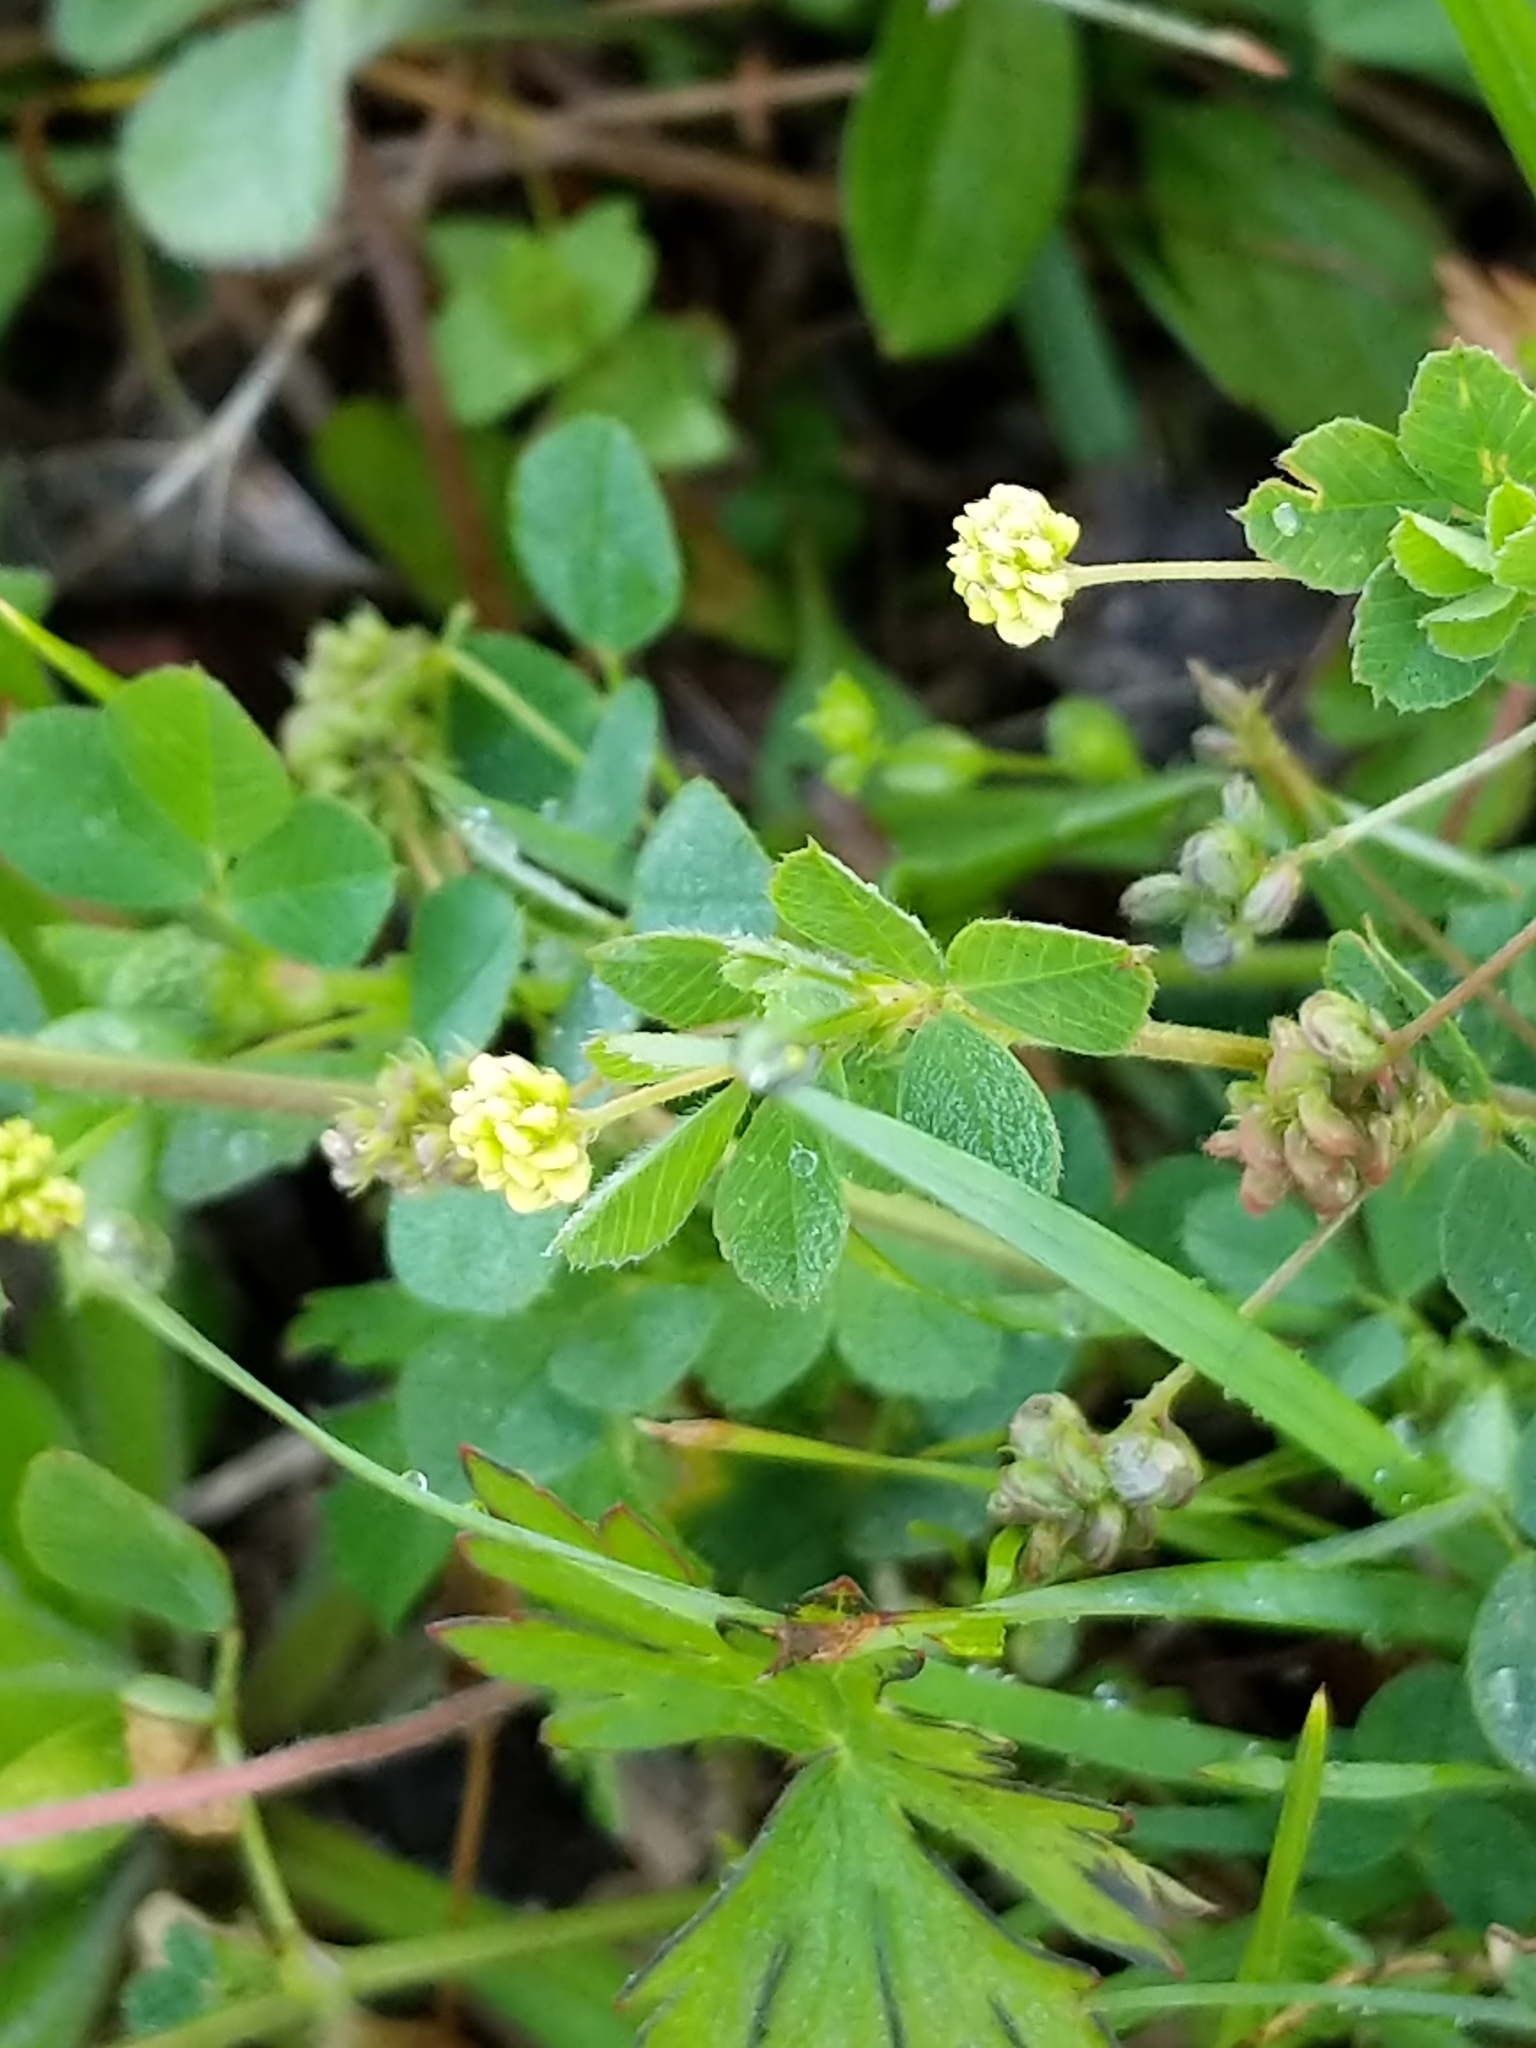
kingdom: Plantae
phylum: Tracheophyta
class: Magnoliopsida
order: Fabales
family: Fabaceae
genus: Medicago
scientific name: Medicago lupulina
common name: Black medick
